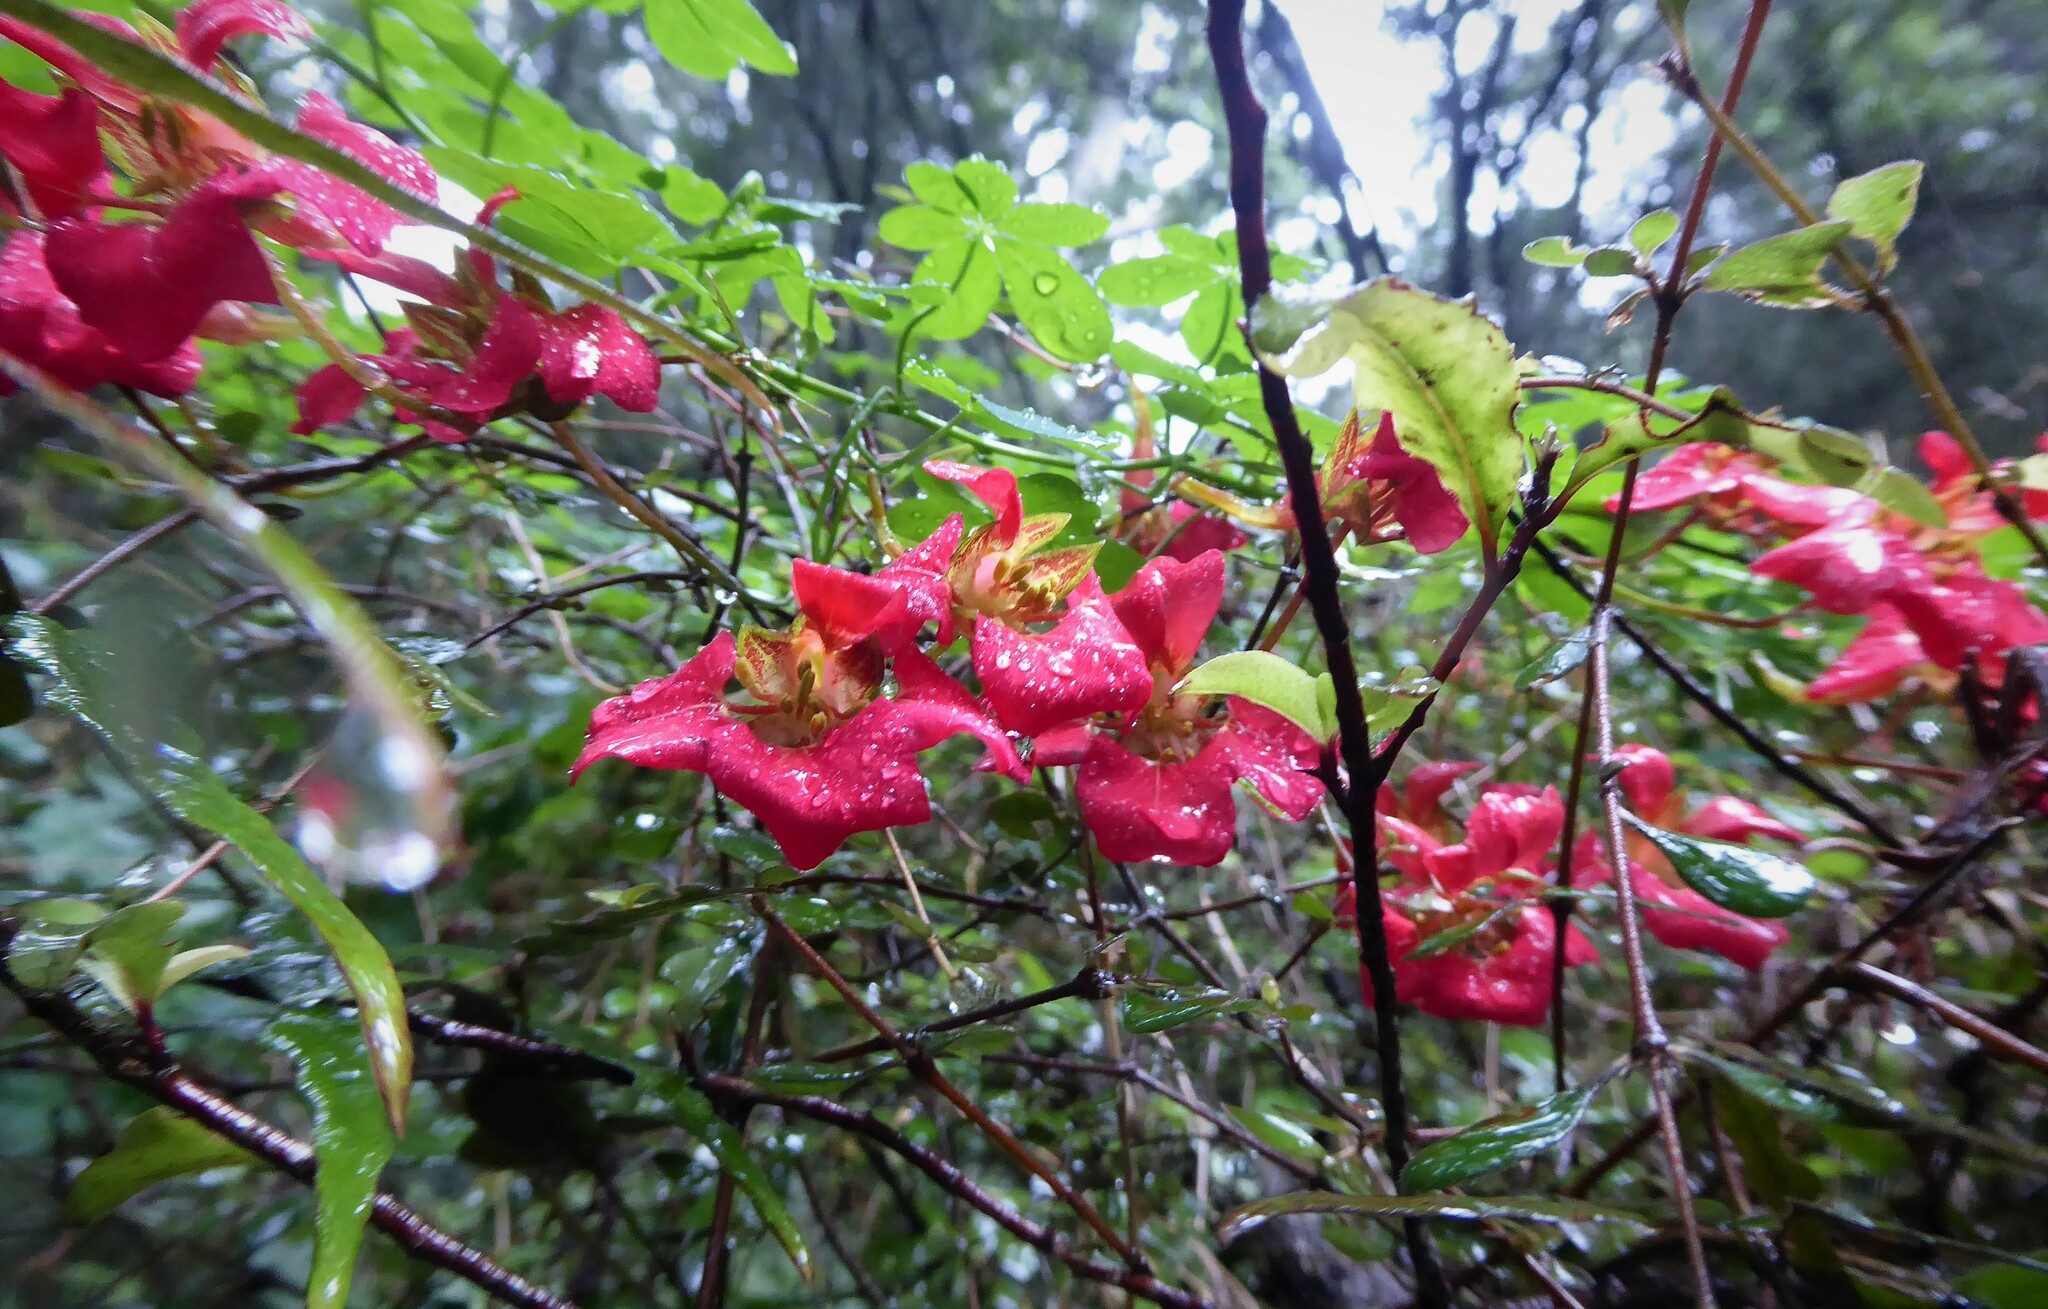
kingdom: Plantae
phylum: Tracheophyta
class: Magnoliopsida
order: Brassicales
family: Tropaeolaceae
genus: Tropaeolum
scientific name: Tropaeolum speciosum
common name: Flame nasturtium
